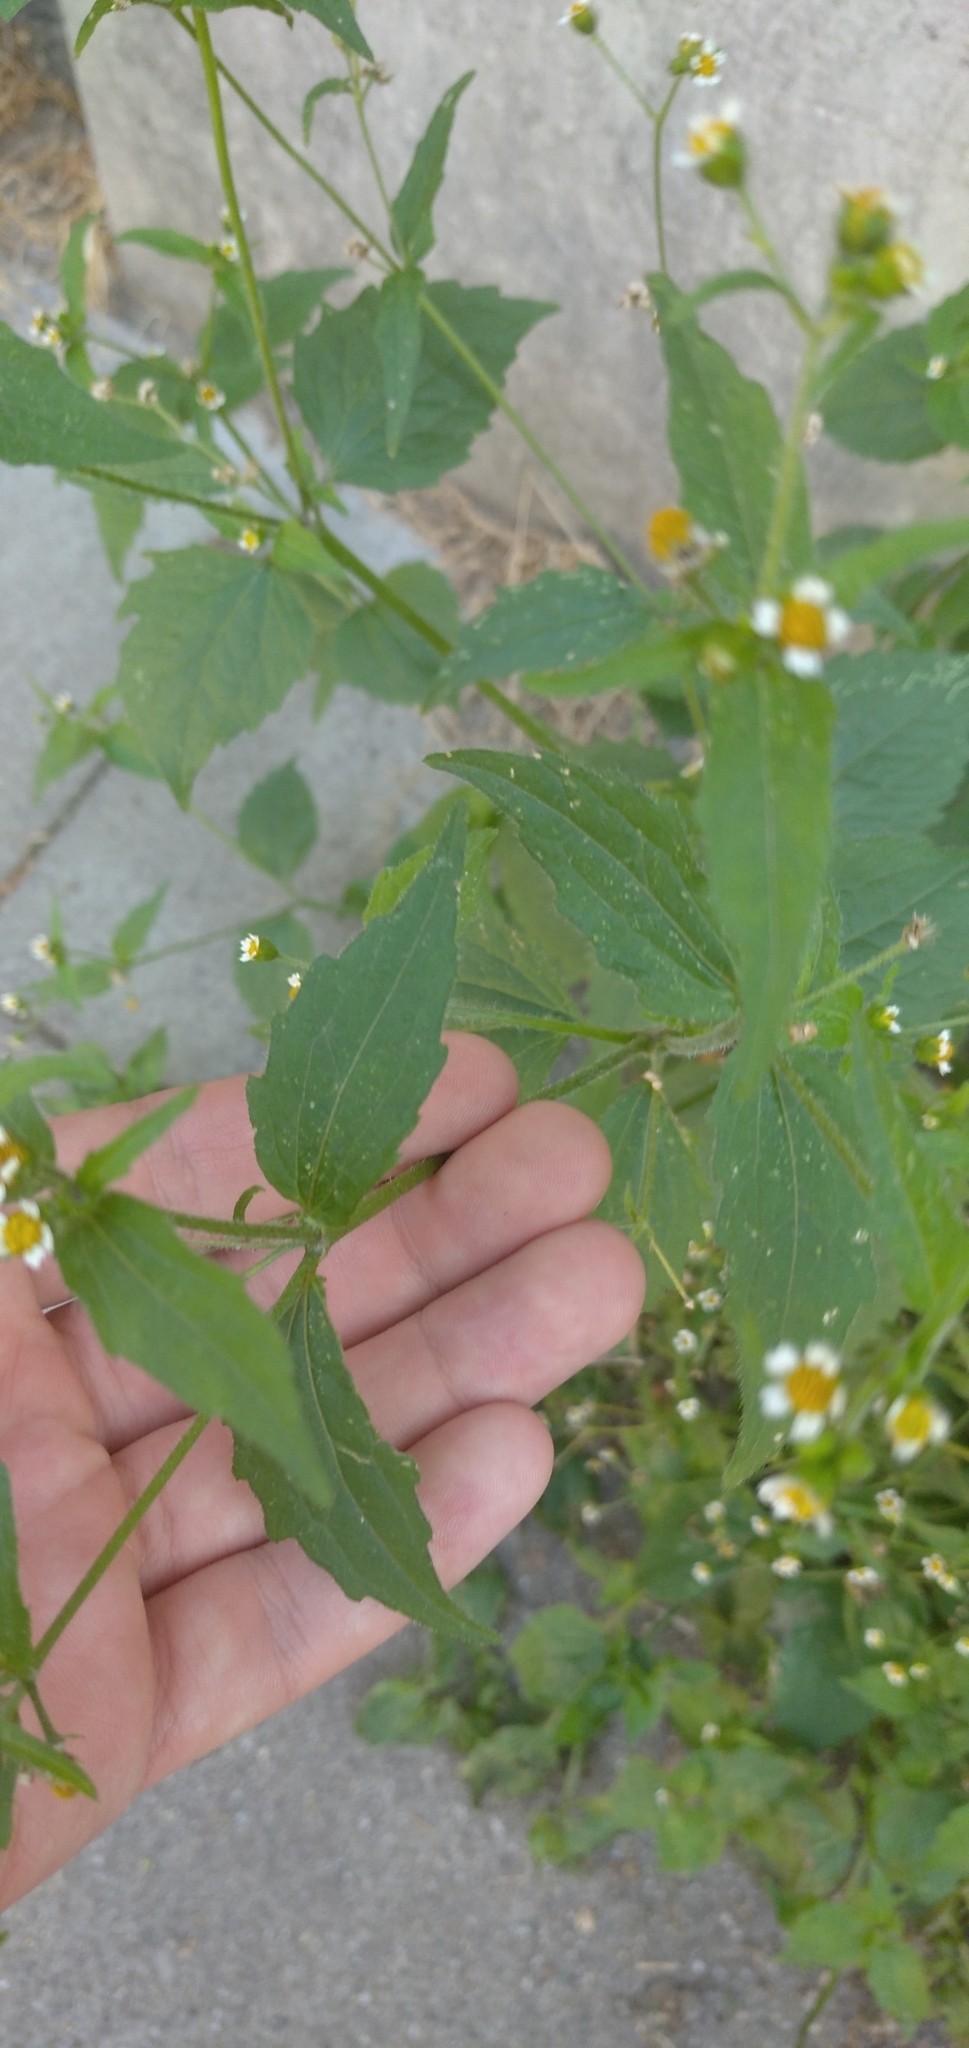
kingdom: Plantae
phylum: Tracheophyta
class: Magnoliopsida
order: Asterales
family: Asteraceae
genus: Galinsoga
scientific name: Galinsoga parviflora
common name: Gallant soldier
